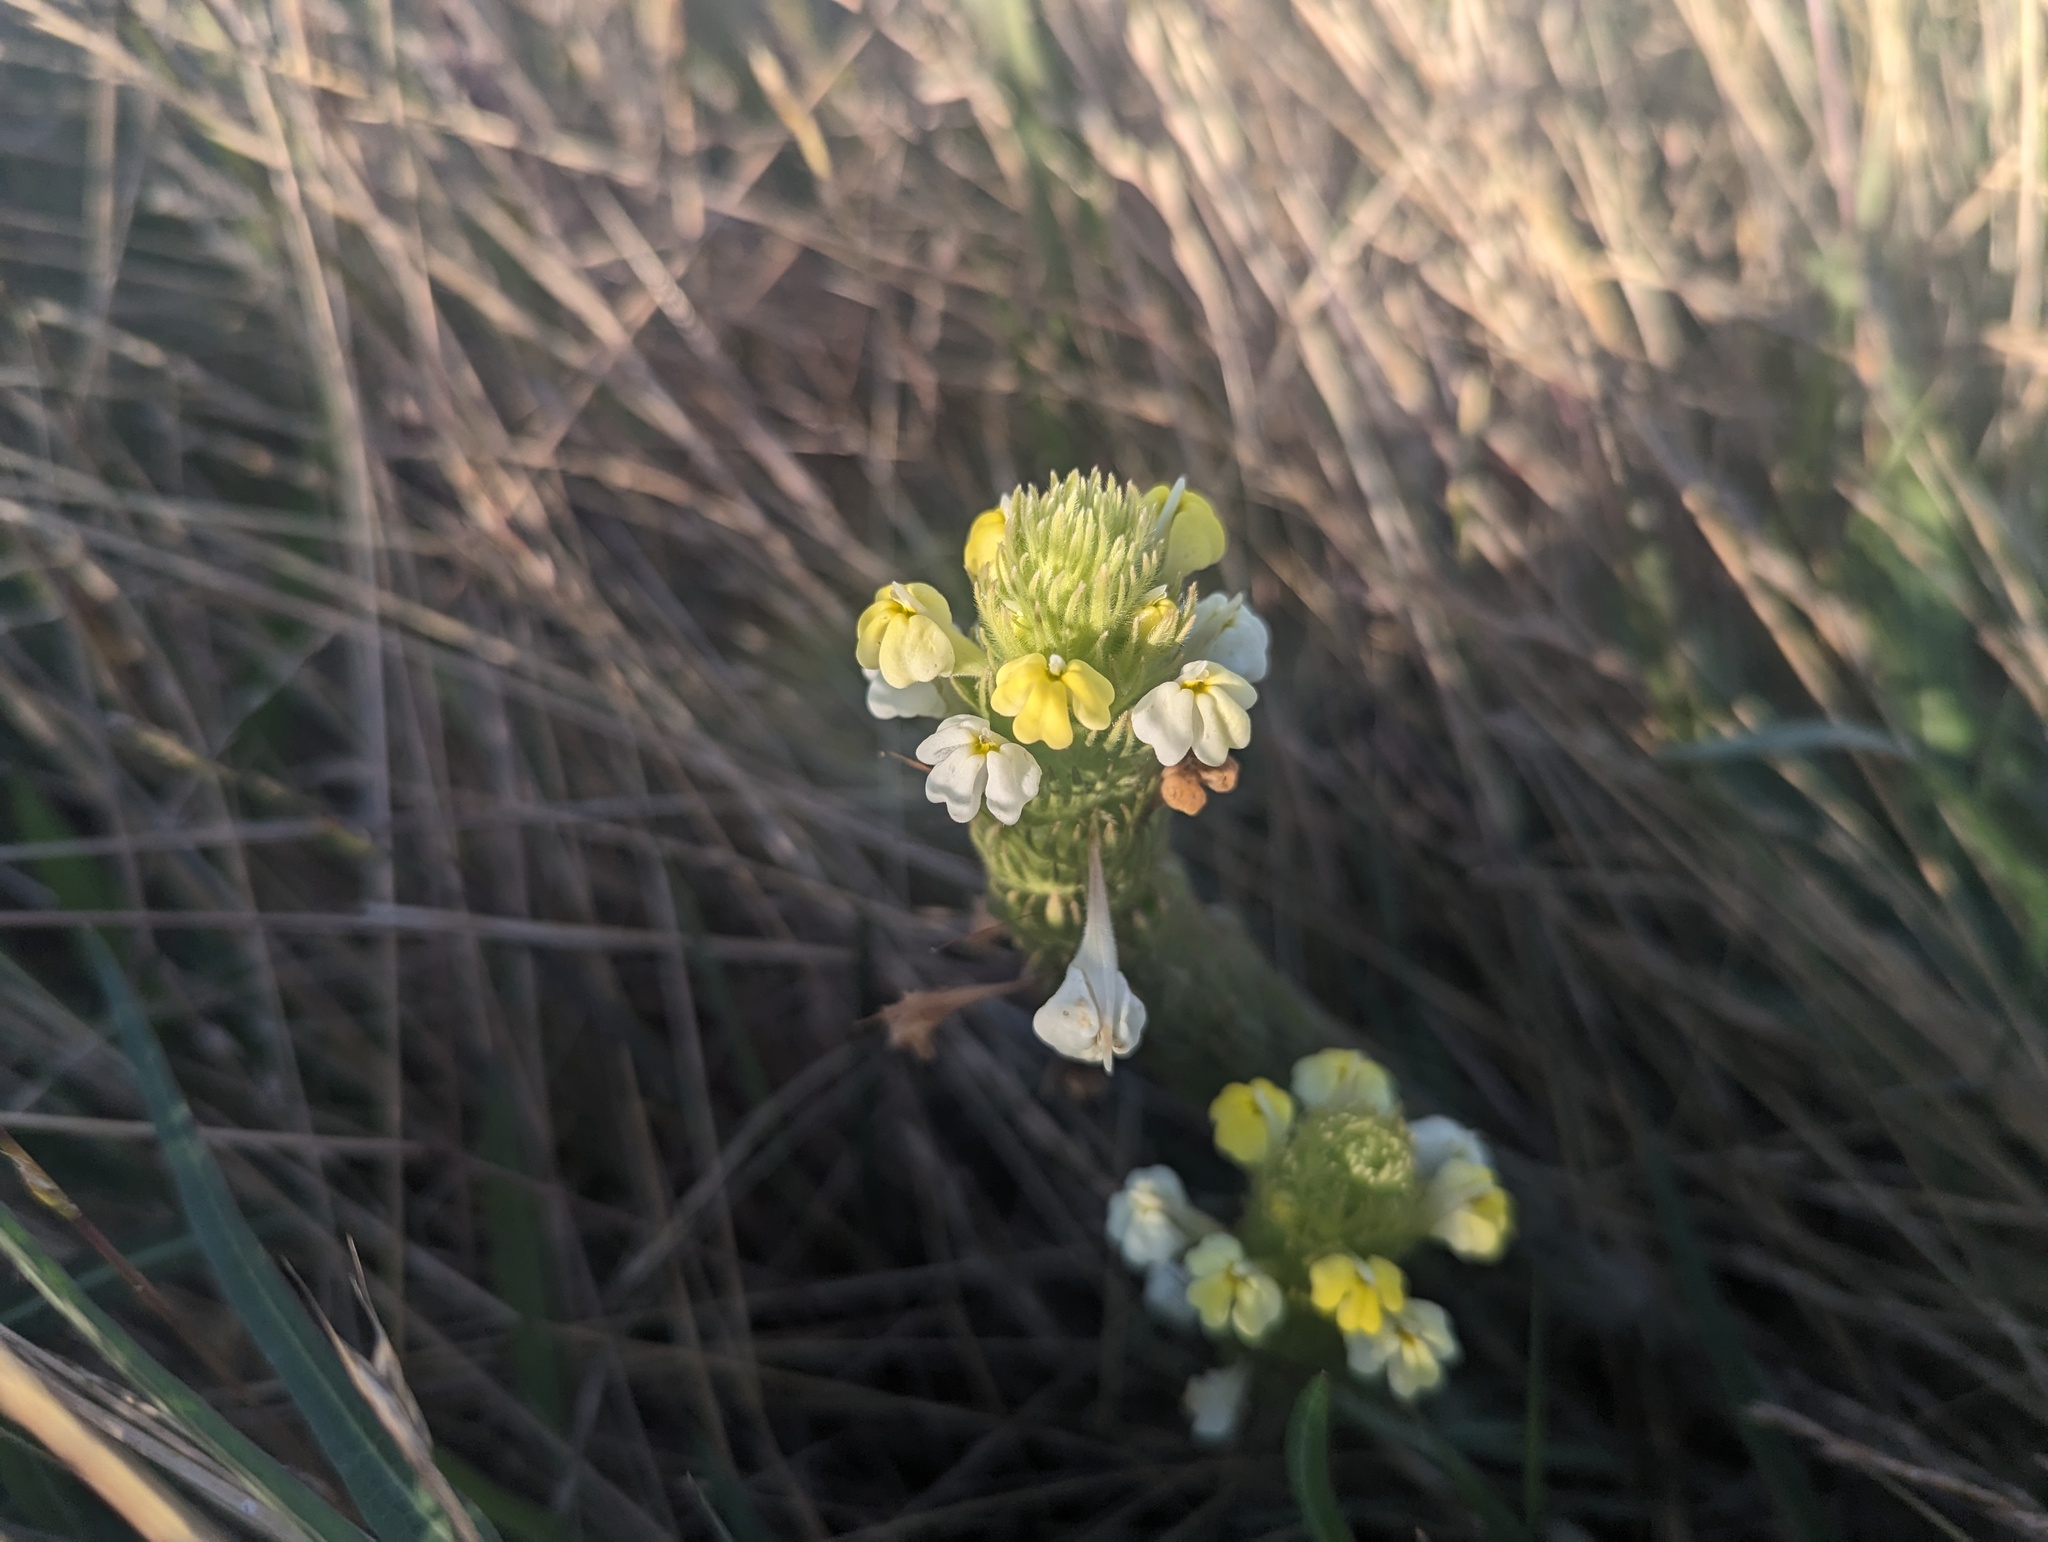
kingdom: Plantae
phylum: Tracheophyta
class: Magnoliopsida
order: Lamiales
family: Orobanchaceae
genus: Castilleja
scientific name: Castilleja rubicundula
